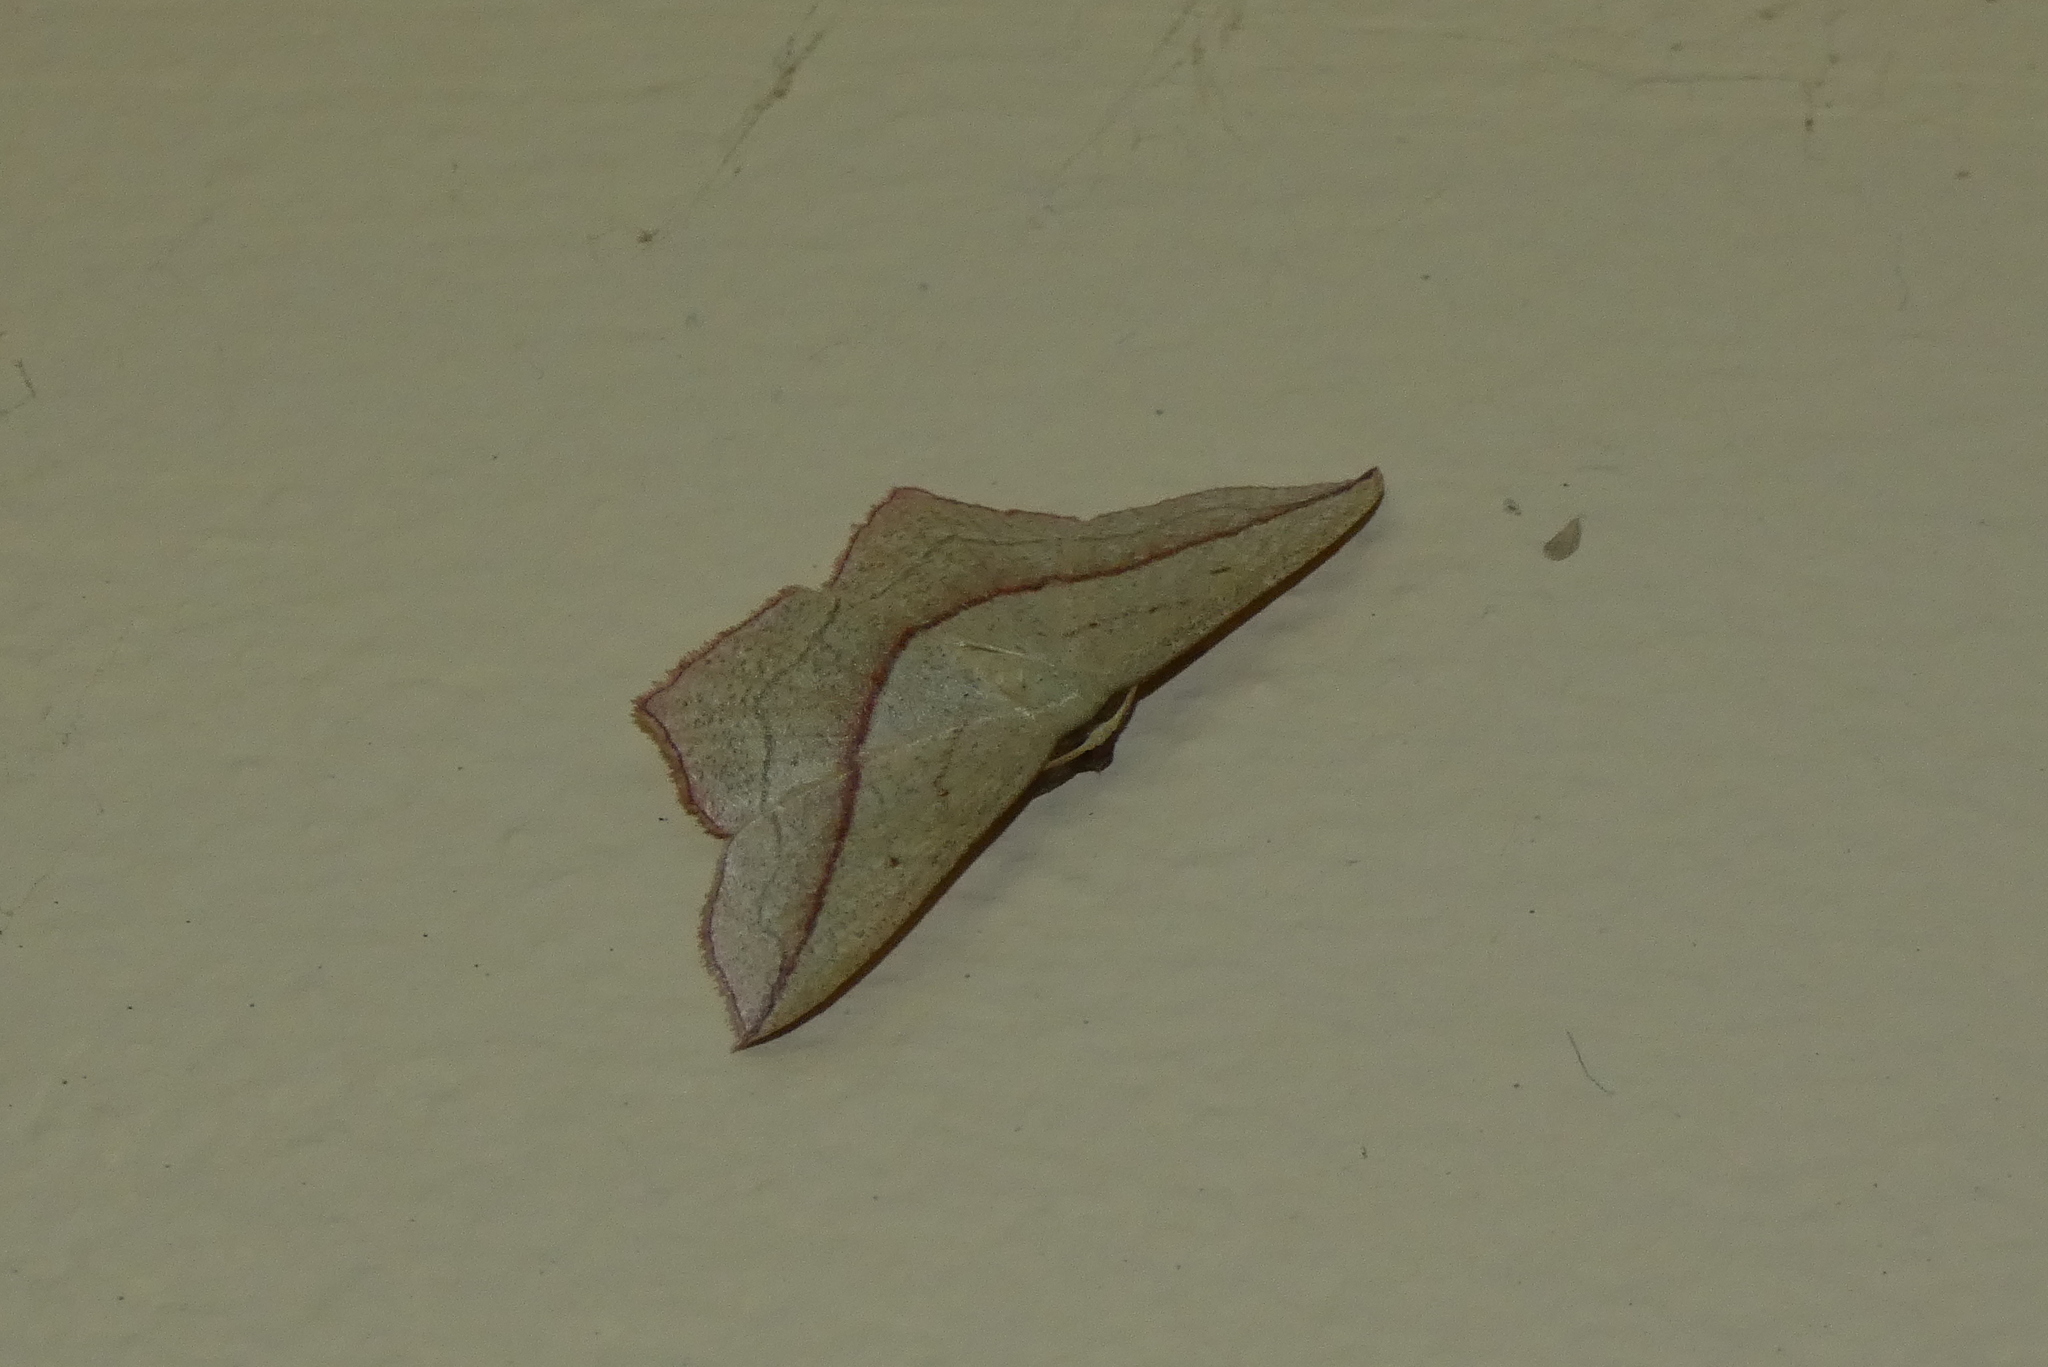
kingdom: Animalia
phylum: Arthropoda
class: Insecta
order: Lepidoptera
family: Geometridae
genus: Timandra
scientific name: Timandra comae
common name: Blood-vein
